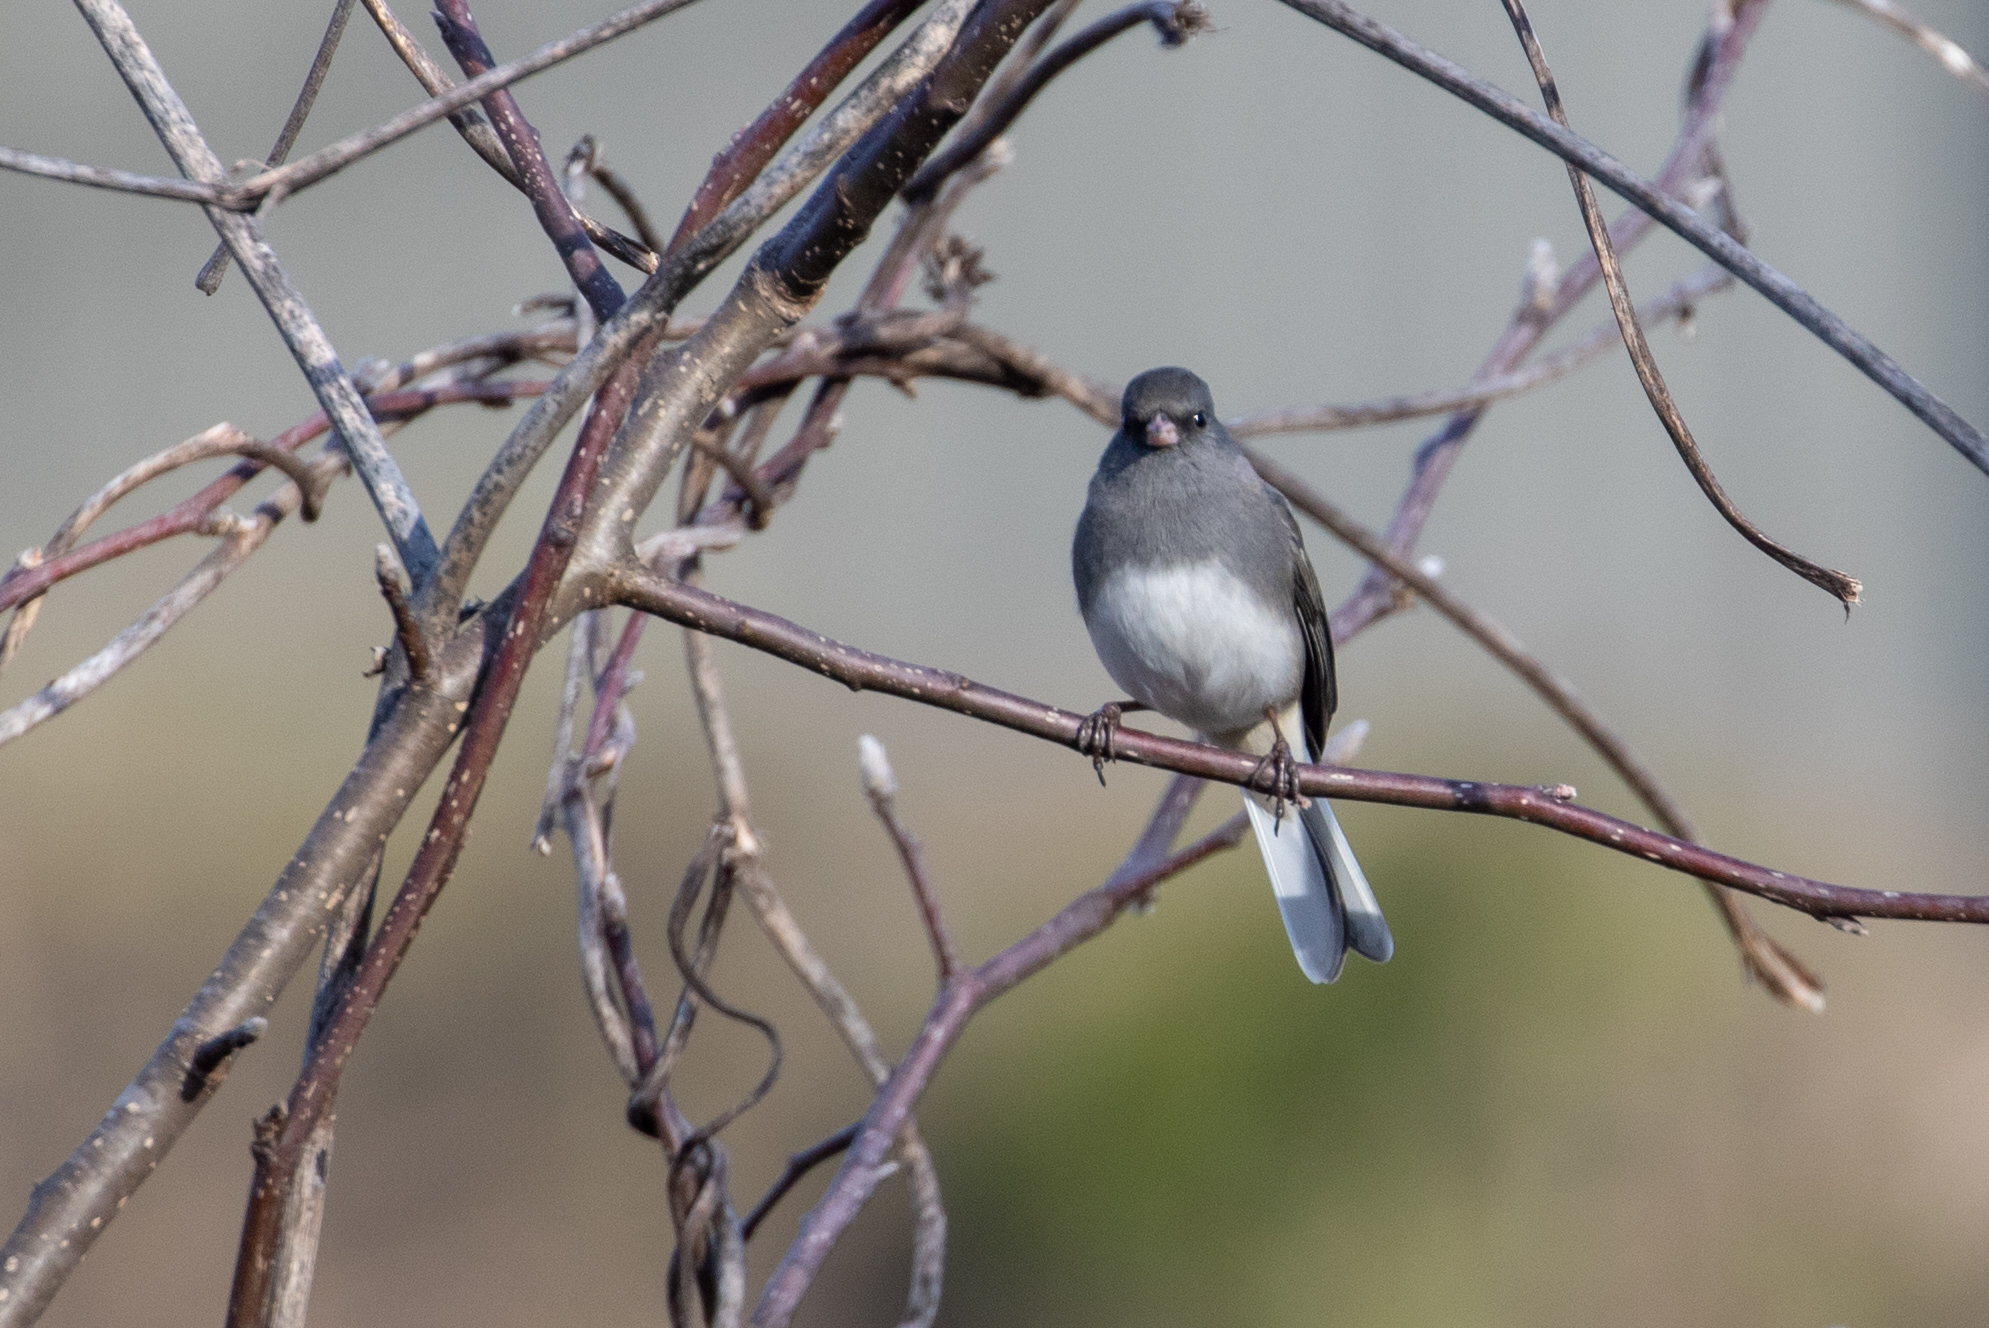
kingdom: Animalia
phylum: Chordata
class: Aves
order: Passeriformes
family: Passerellidae
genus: Junco
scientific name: Junco hyemalis
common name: Dark-eyed junco
